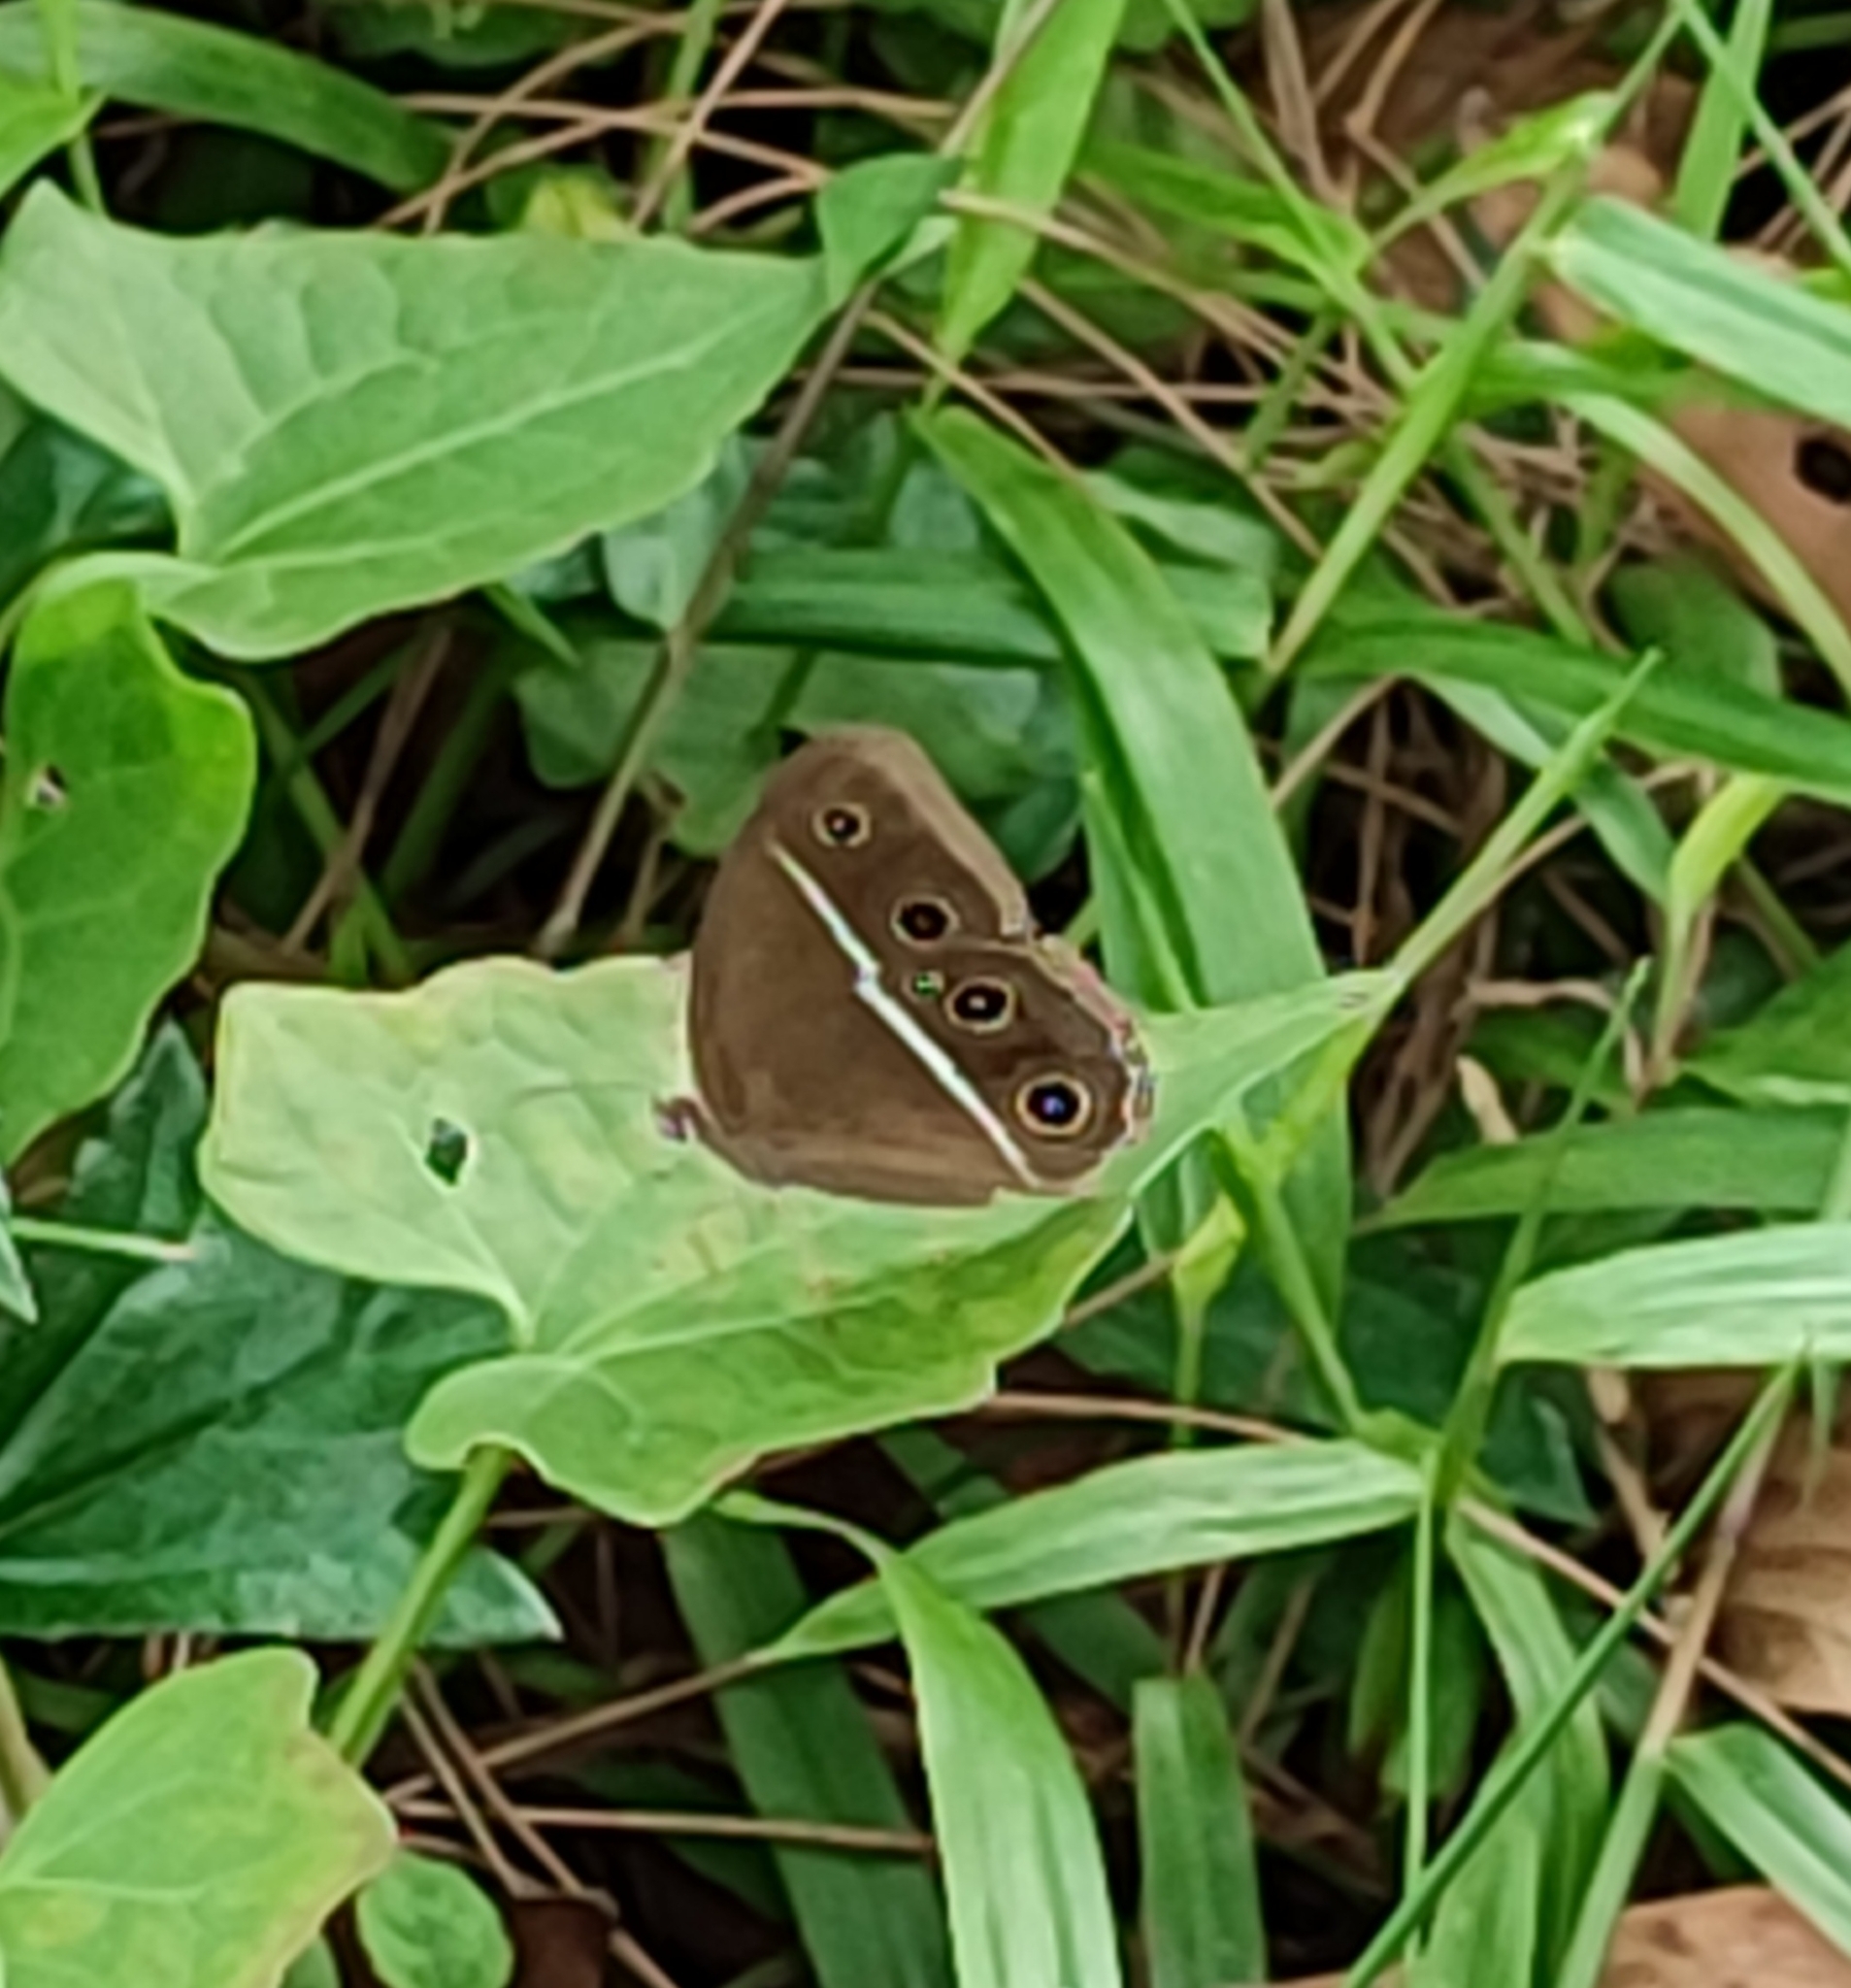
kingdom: Animalia
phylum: Arthropoda
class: Insecta
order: Lepidoptera
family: Nymphalidae
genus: Orsotriaena
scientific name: Orsotriaena medus
